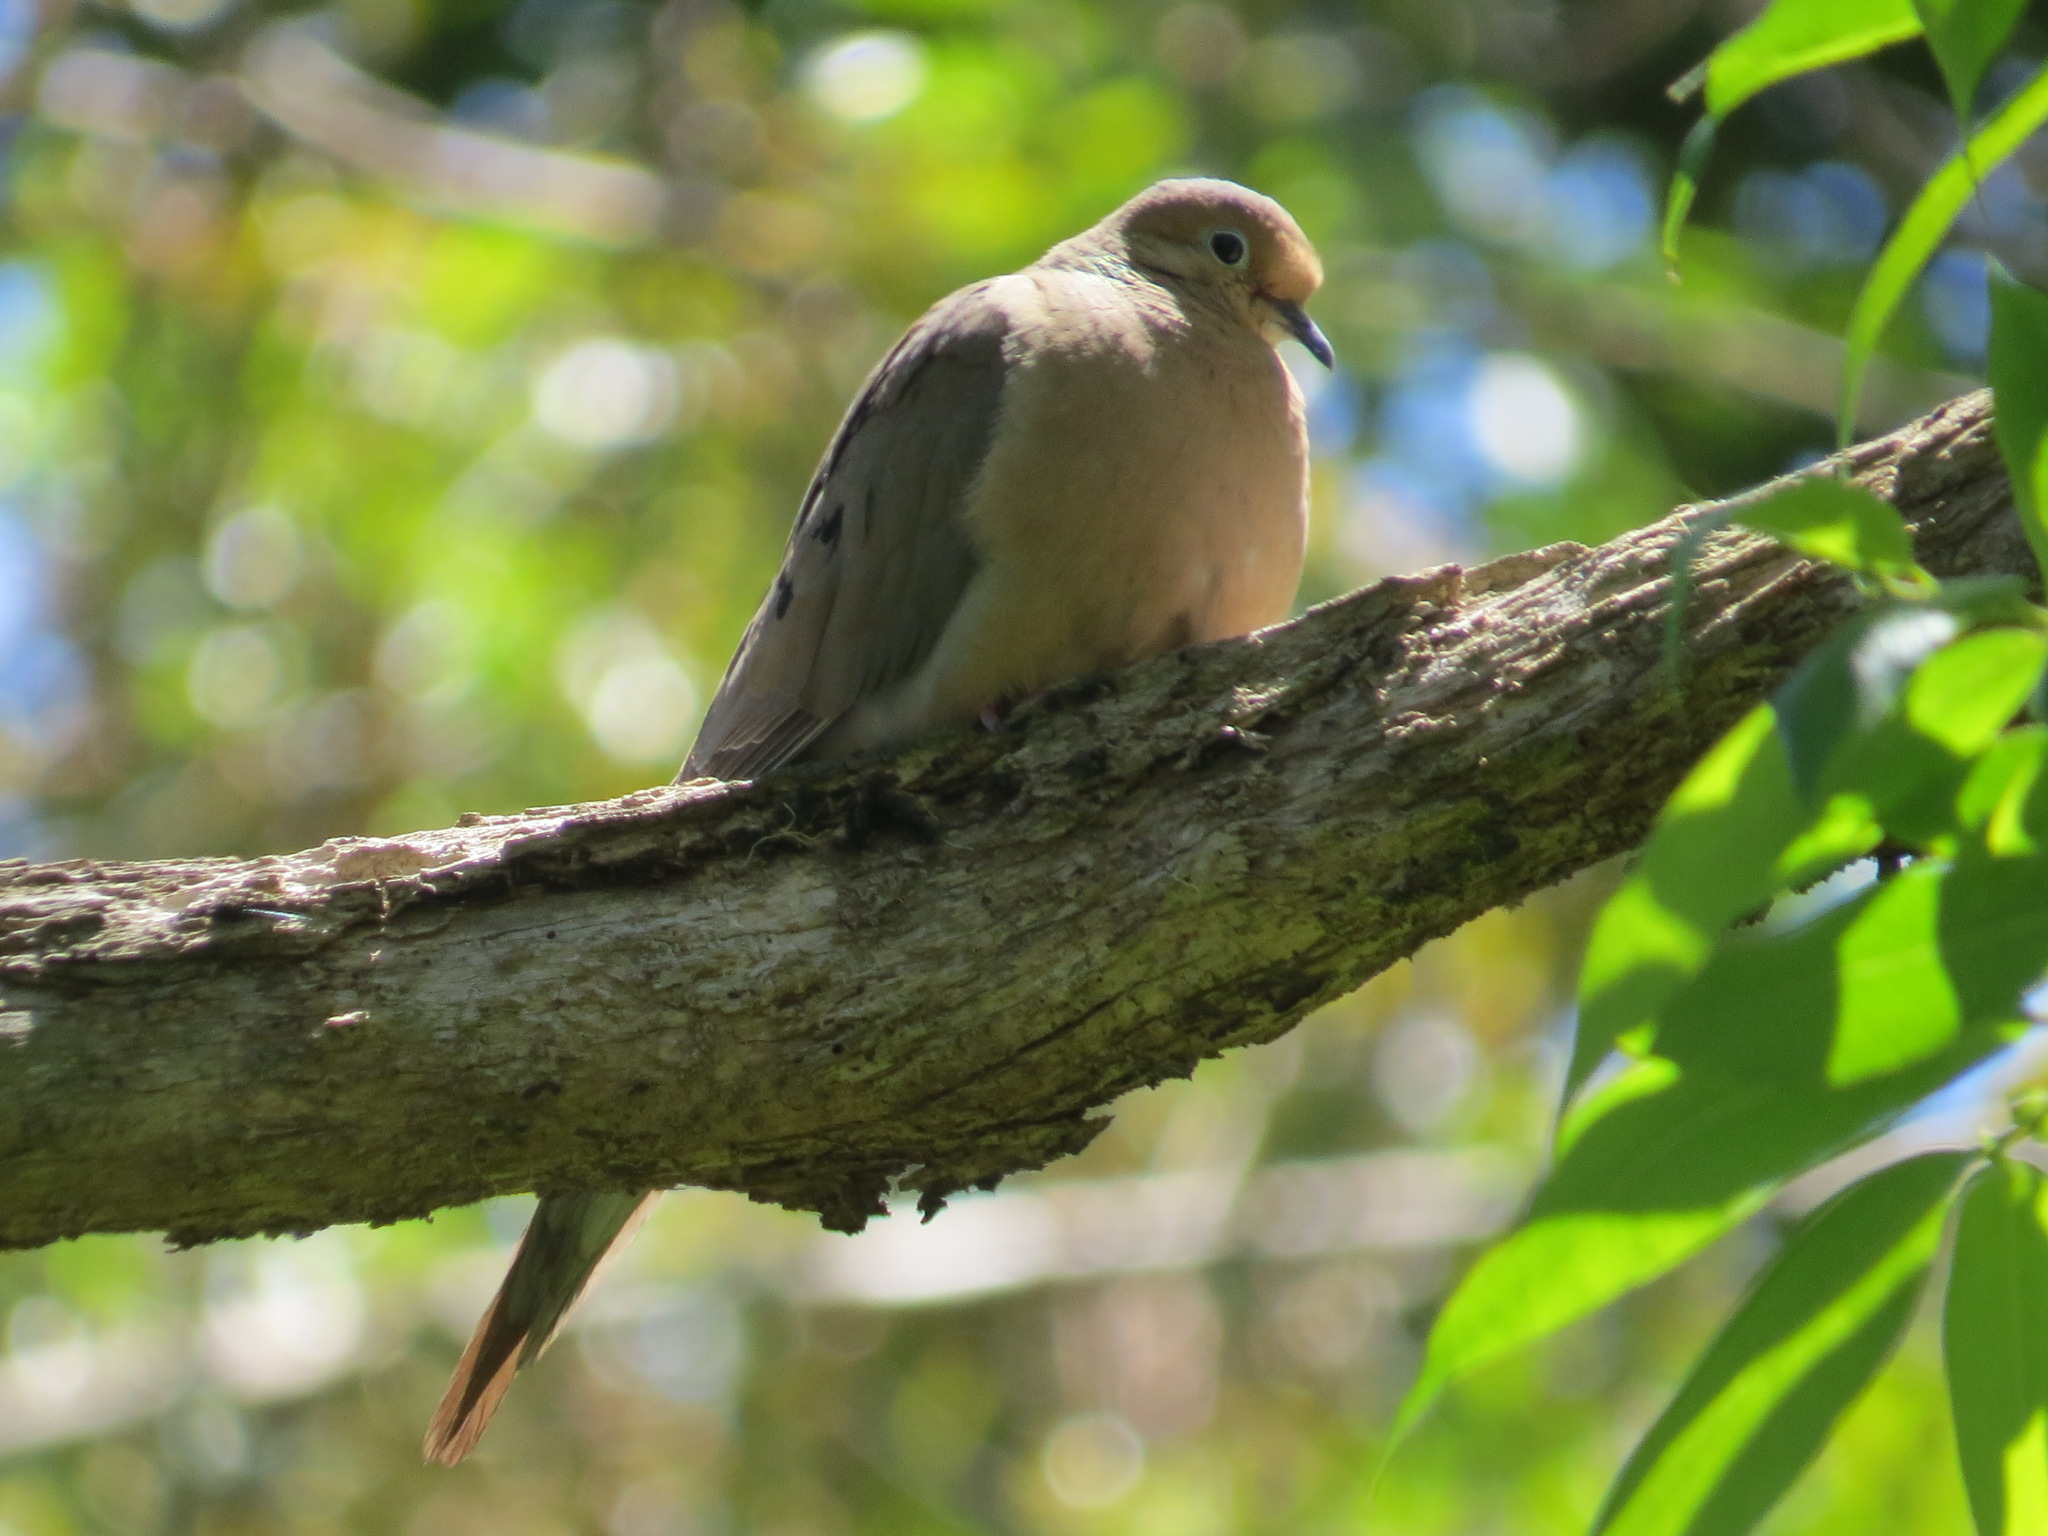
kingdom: Animalia
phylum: Chordata
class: Aves
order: Columbiformes
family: Columbidae
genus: Zenaida
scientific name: Zenaida macroura
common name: Mourning dove
